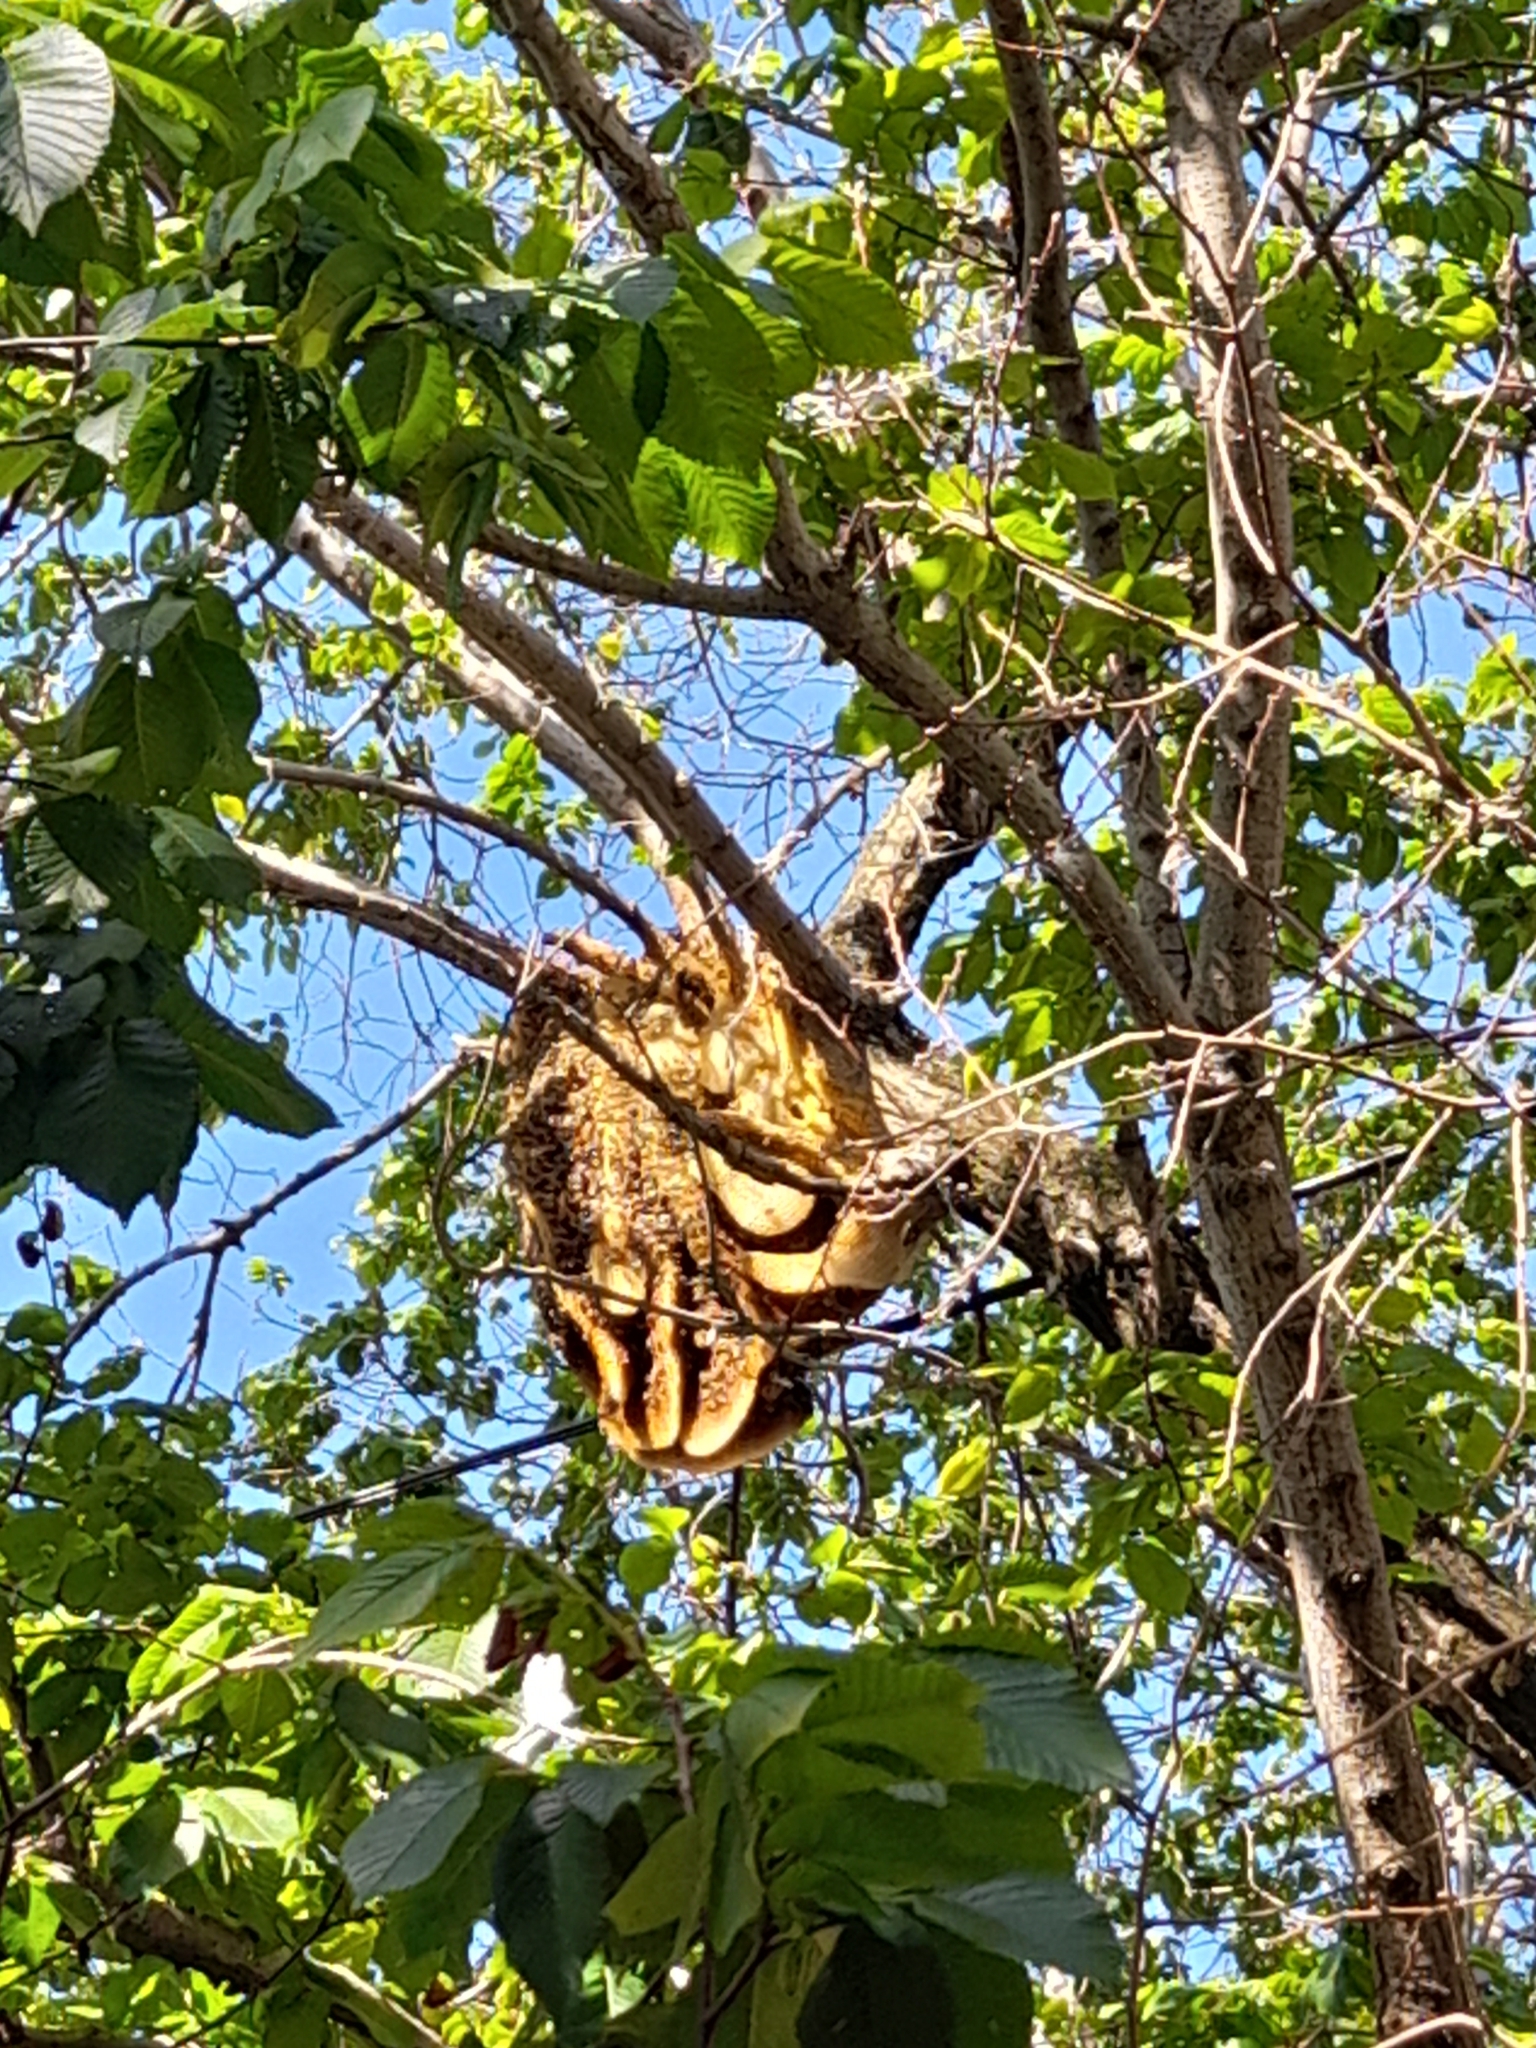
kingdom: Animalia
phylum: Arthropoda
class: Insecta
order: Hymenoptera
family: Apidae
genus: Apis
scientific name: Apis mellifera
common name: Honey bee
